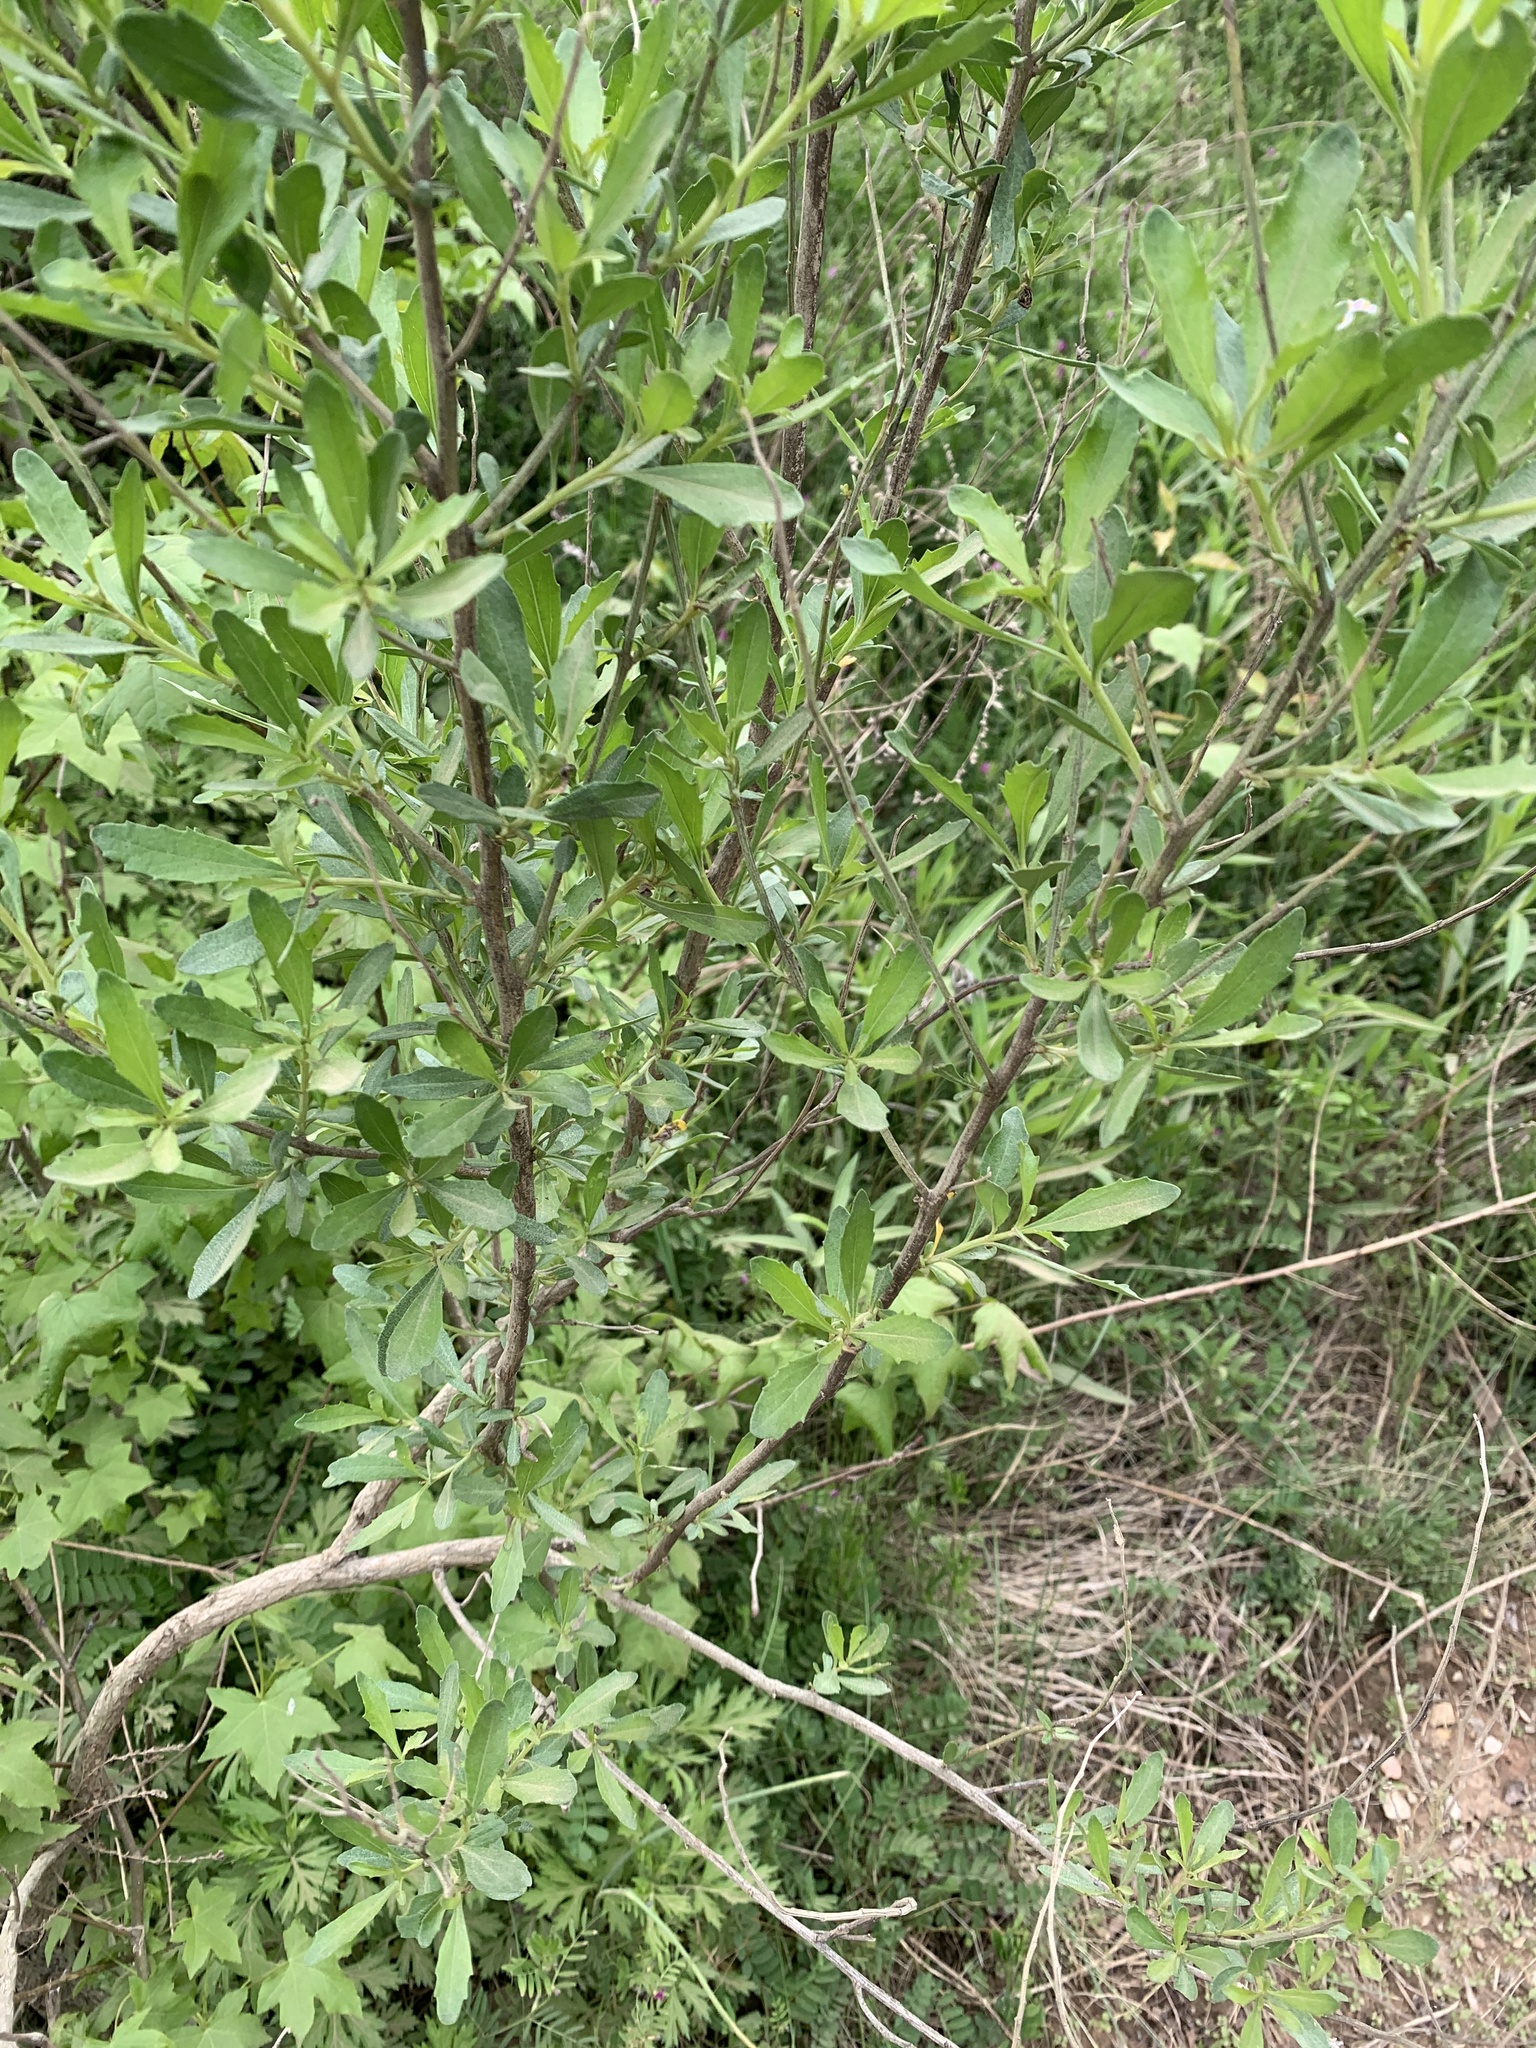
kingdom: Plantae
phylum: Tracheophyta
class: Magnoliopsida
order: Asterales
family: Asteraceae
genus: Baccharis
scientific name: Baccharis halimifolia
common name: Eastern baccharis
